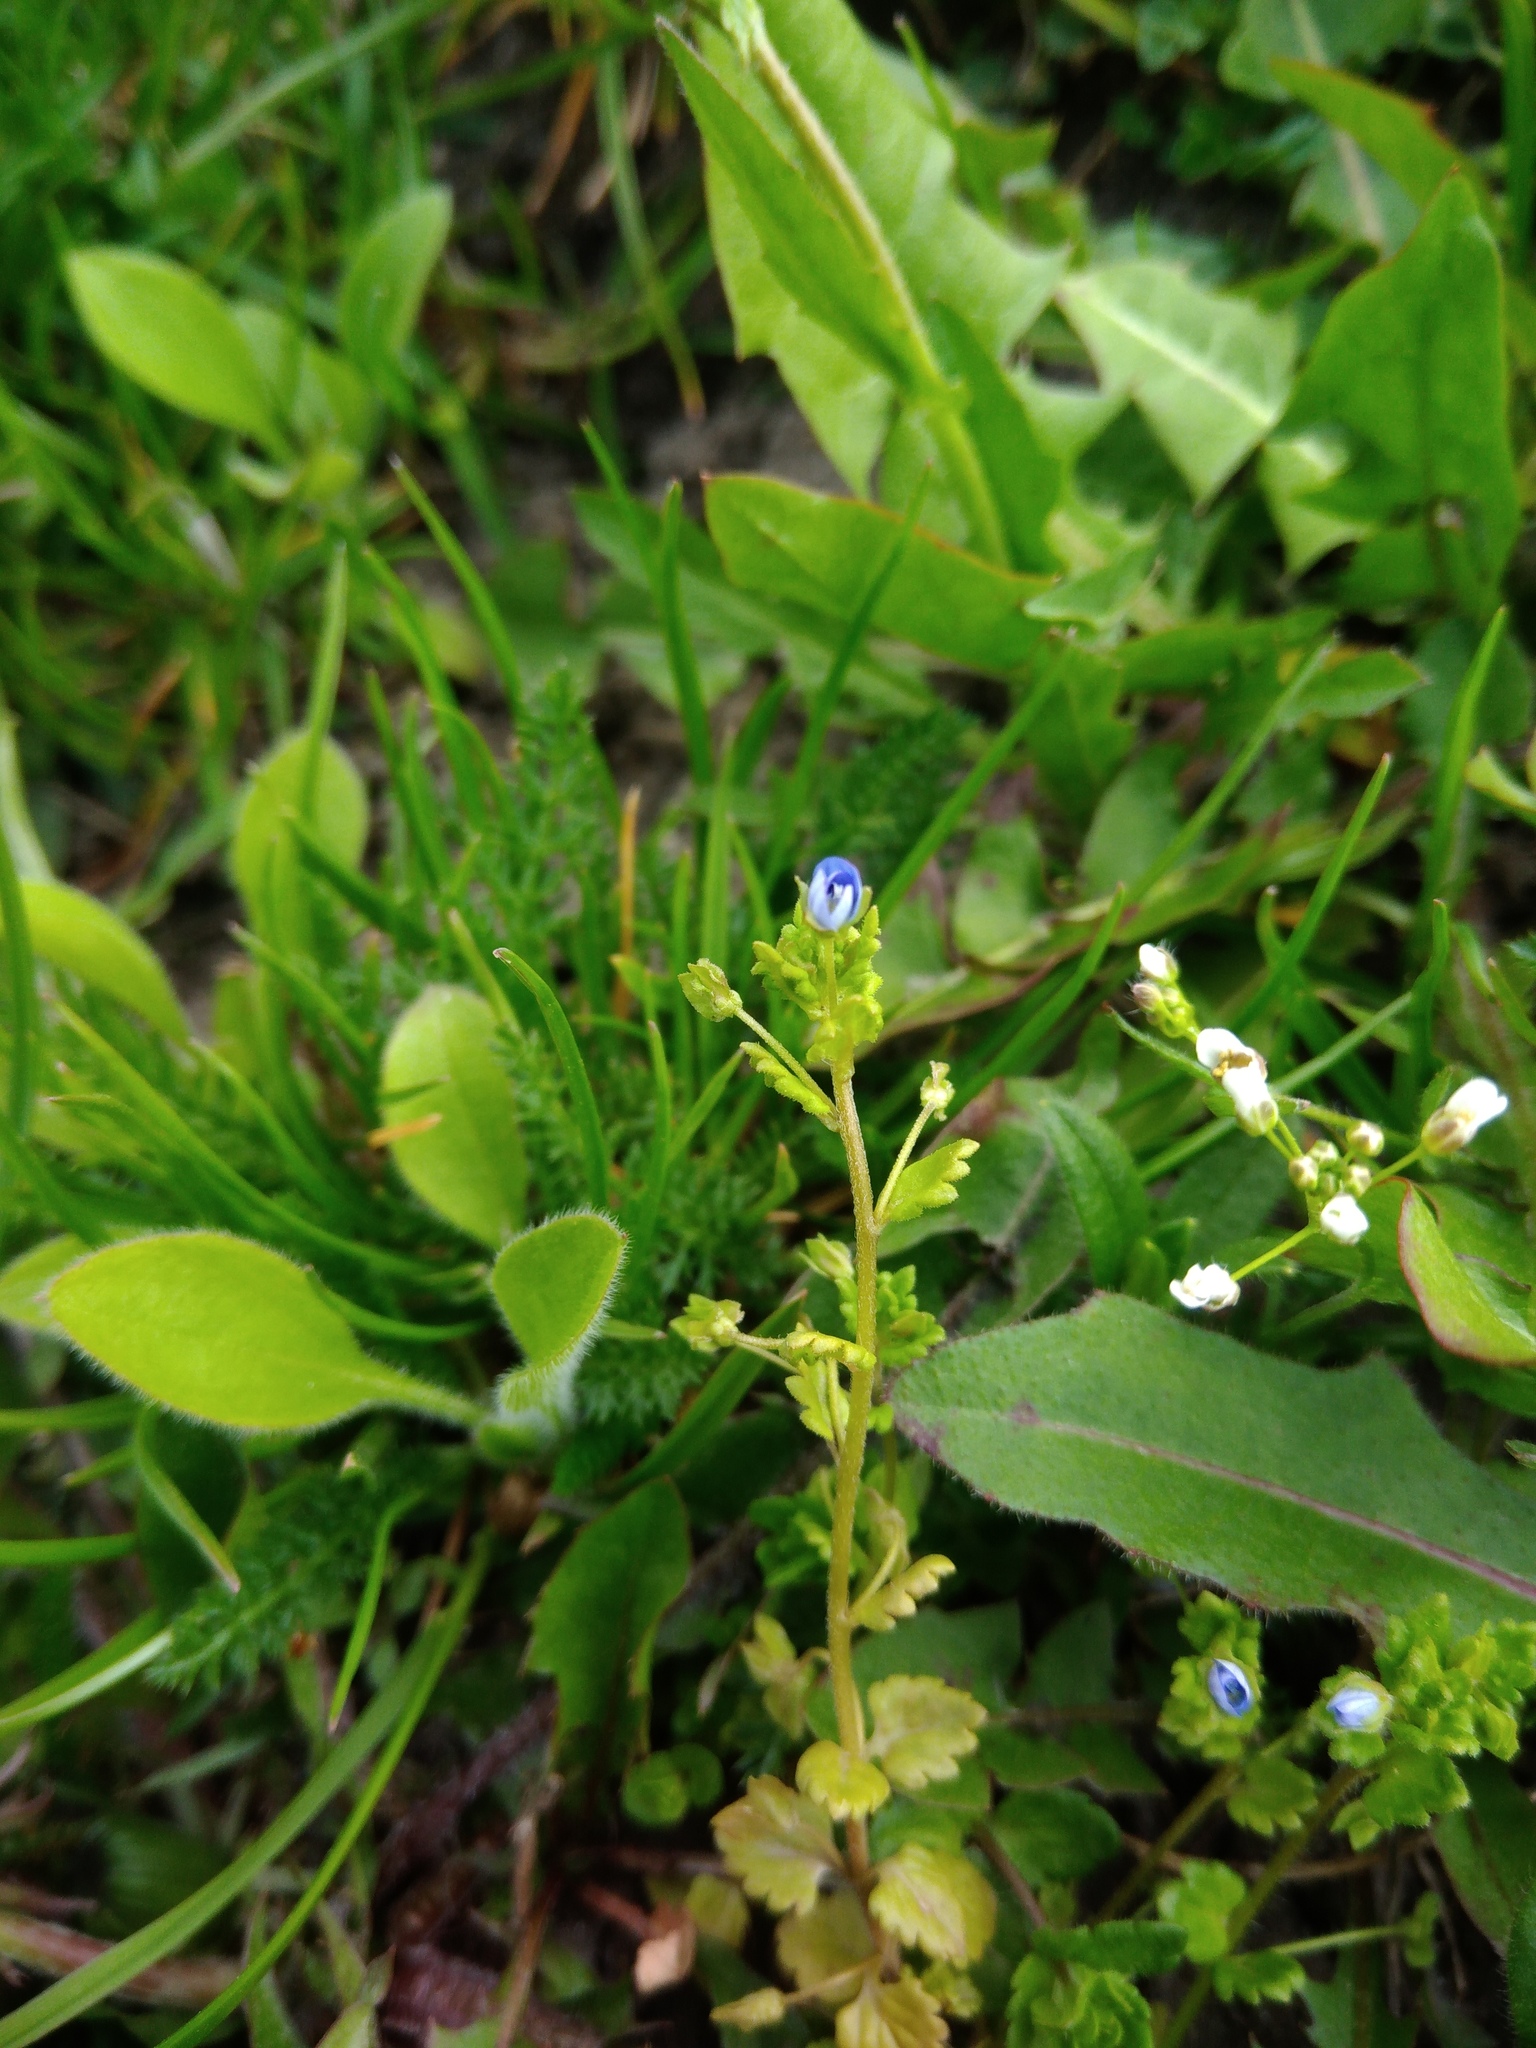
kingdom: Plantae
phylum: Tracheophyta
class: Magnoliopsida
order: Lamiales
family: Plantaginaceae
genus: Veronica
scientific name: Veronica persica
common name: Common field-speedwell
